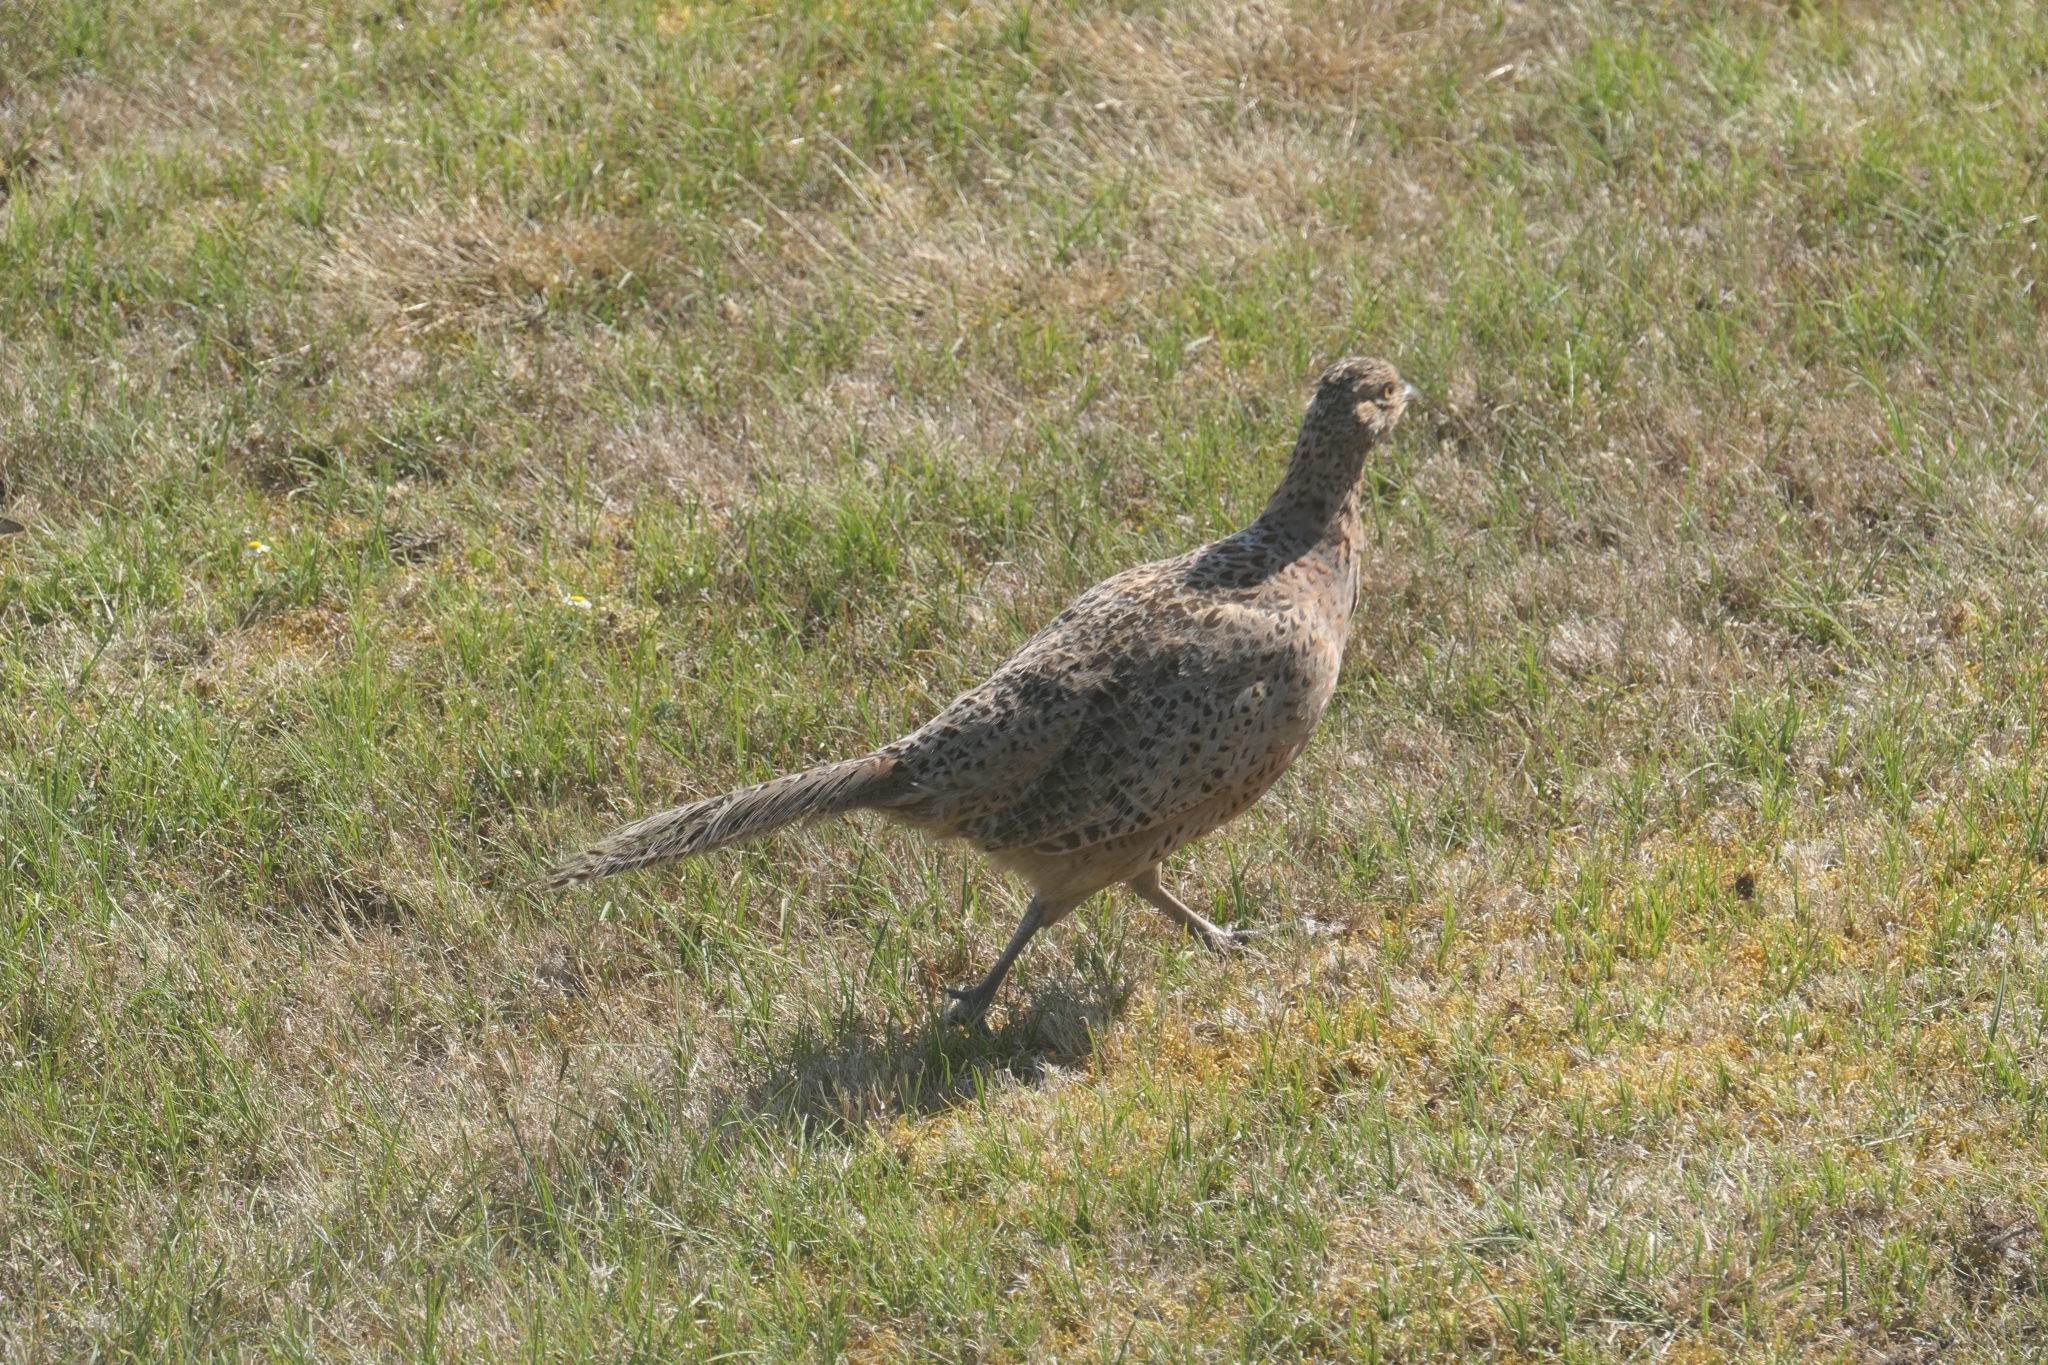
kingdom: Animalia
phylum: Chordata
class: Aves
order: Galliformes
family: Phasianidae
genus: Phasianus
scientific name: Phasianus colchicus
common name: Common pheasant
